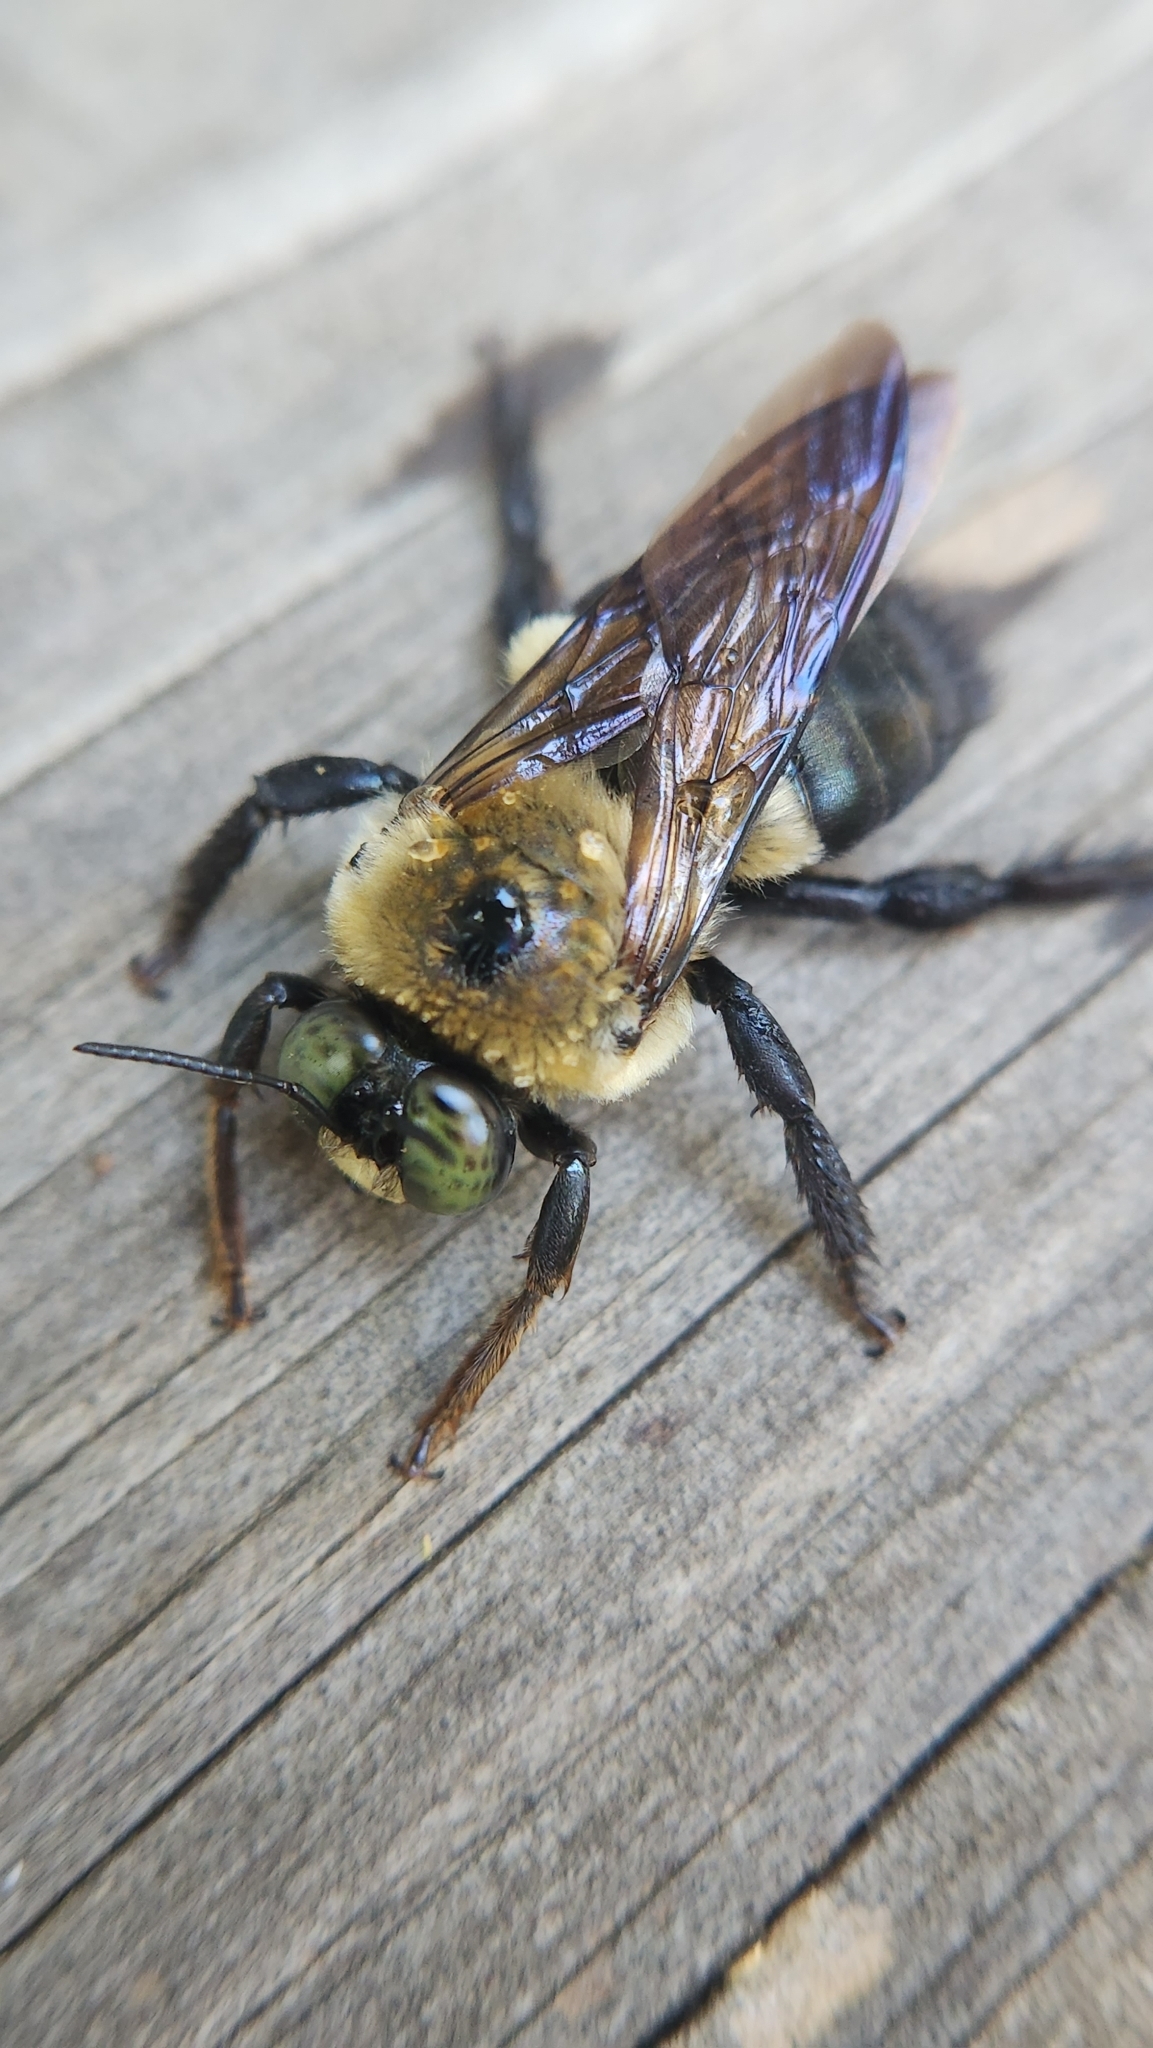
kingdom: Animalia
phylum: Arthropoda
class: Insecta
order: Hymenoptera
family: Apidae
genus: Xylocopa
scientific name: Xylocopa virginica
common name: Carpenter bee
